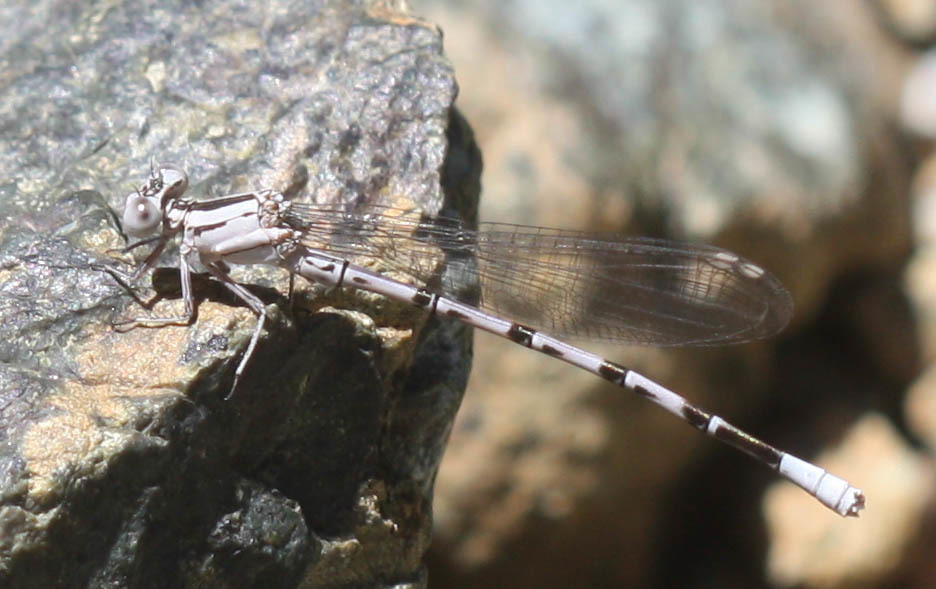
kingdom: Animalia
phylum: Arthropoda
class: Insecta
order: Odonata
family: Coenagrionidae
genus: Argia
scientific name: Argia vivida
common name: Vivid dancer
